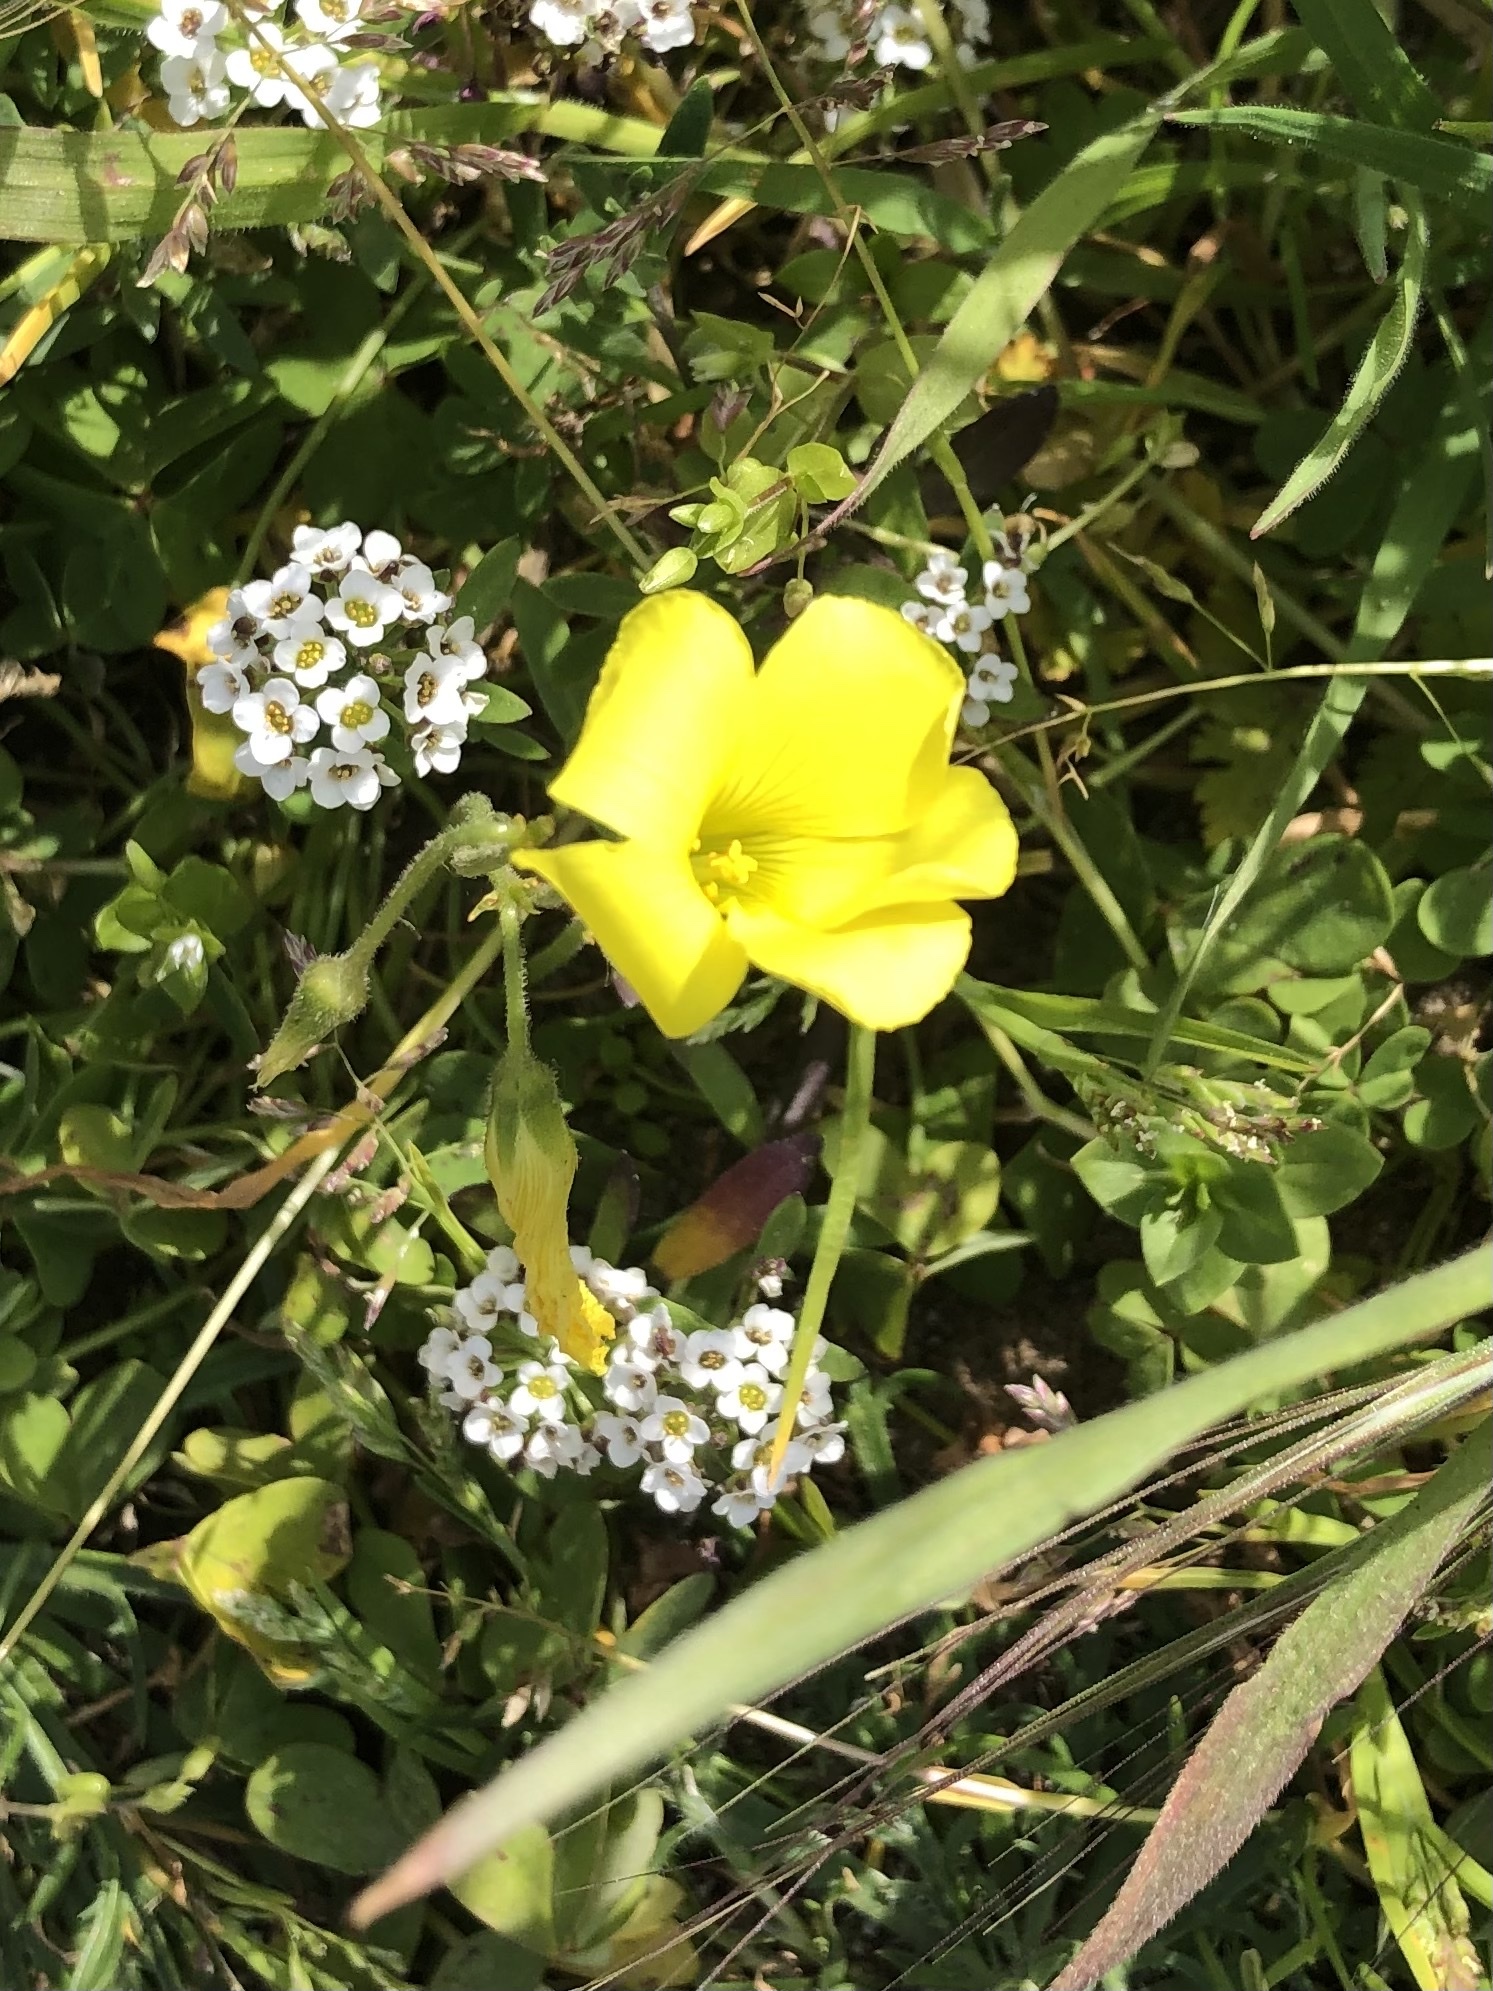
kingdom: Plantae
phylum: Tracheophyta
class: Magnoliopsida
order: Oxalidales
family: Oxalidaceae
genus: Oxalis
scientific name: Oxalis pes-caprae
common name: Bermuda-buttercup
